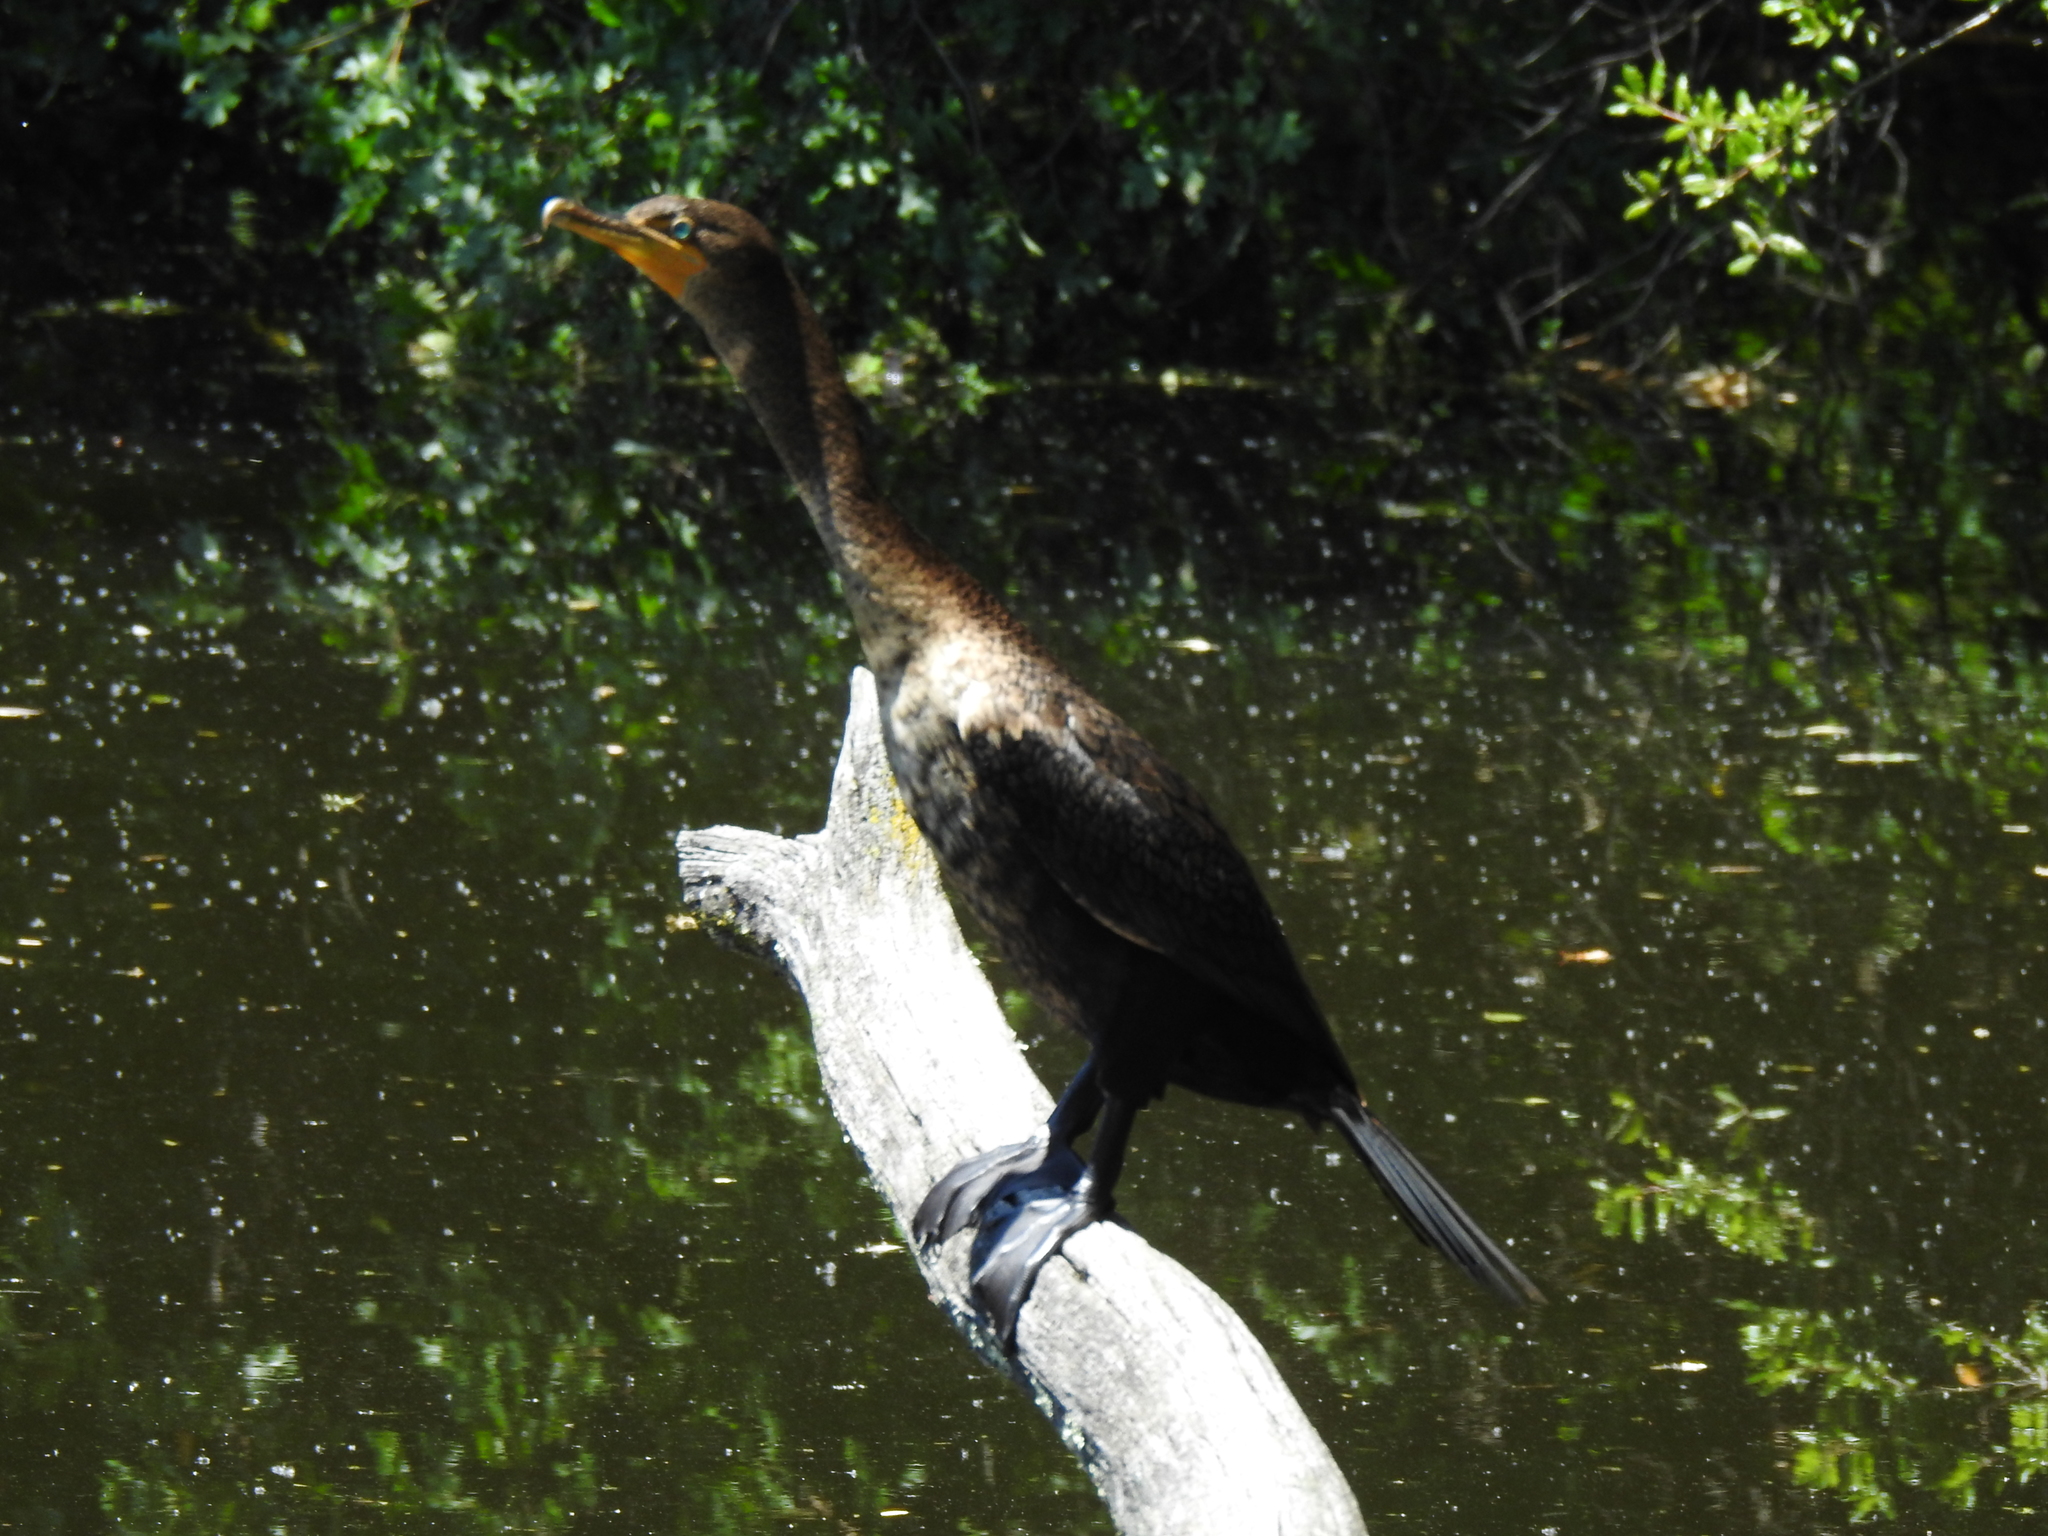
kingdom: Animalia
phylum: Chordata
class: Aves
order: Suliformes
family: Phalacrocoracidae
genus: Phalacrocorax
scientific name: Phalacrocorax auritus
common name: Double-crested cormorant
